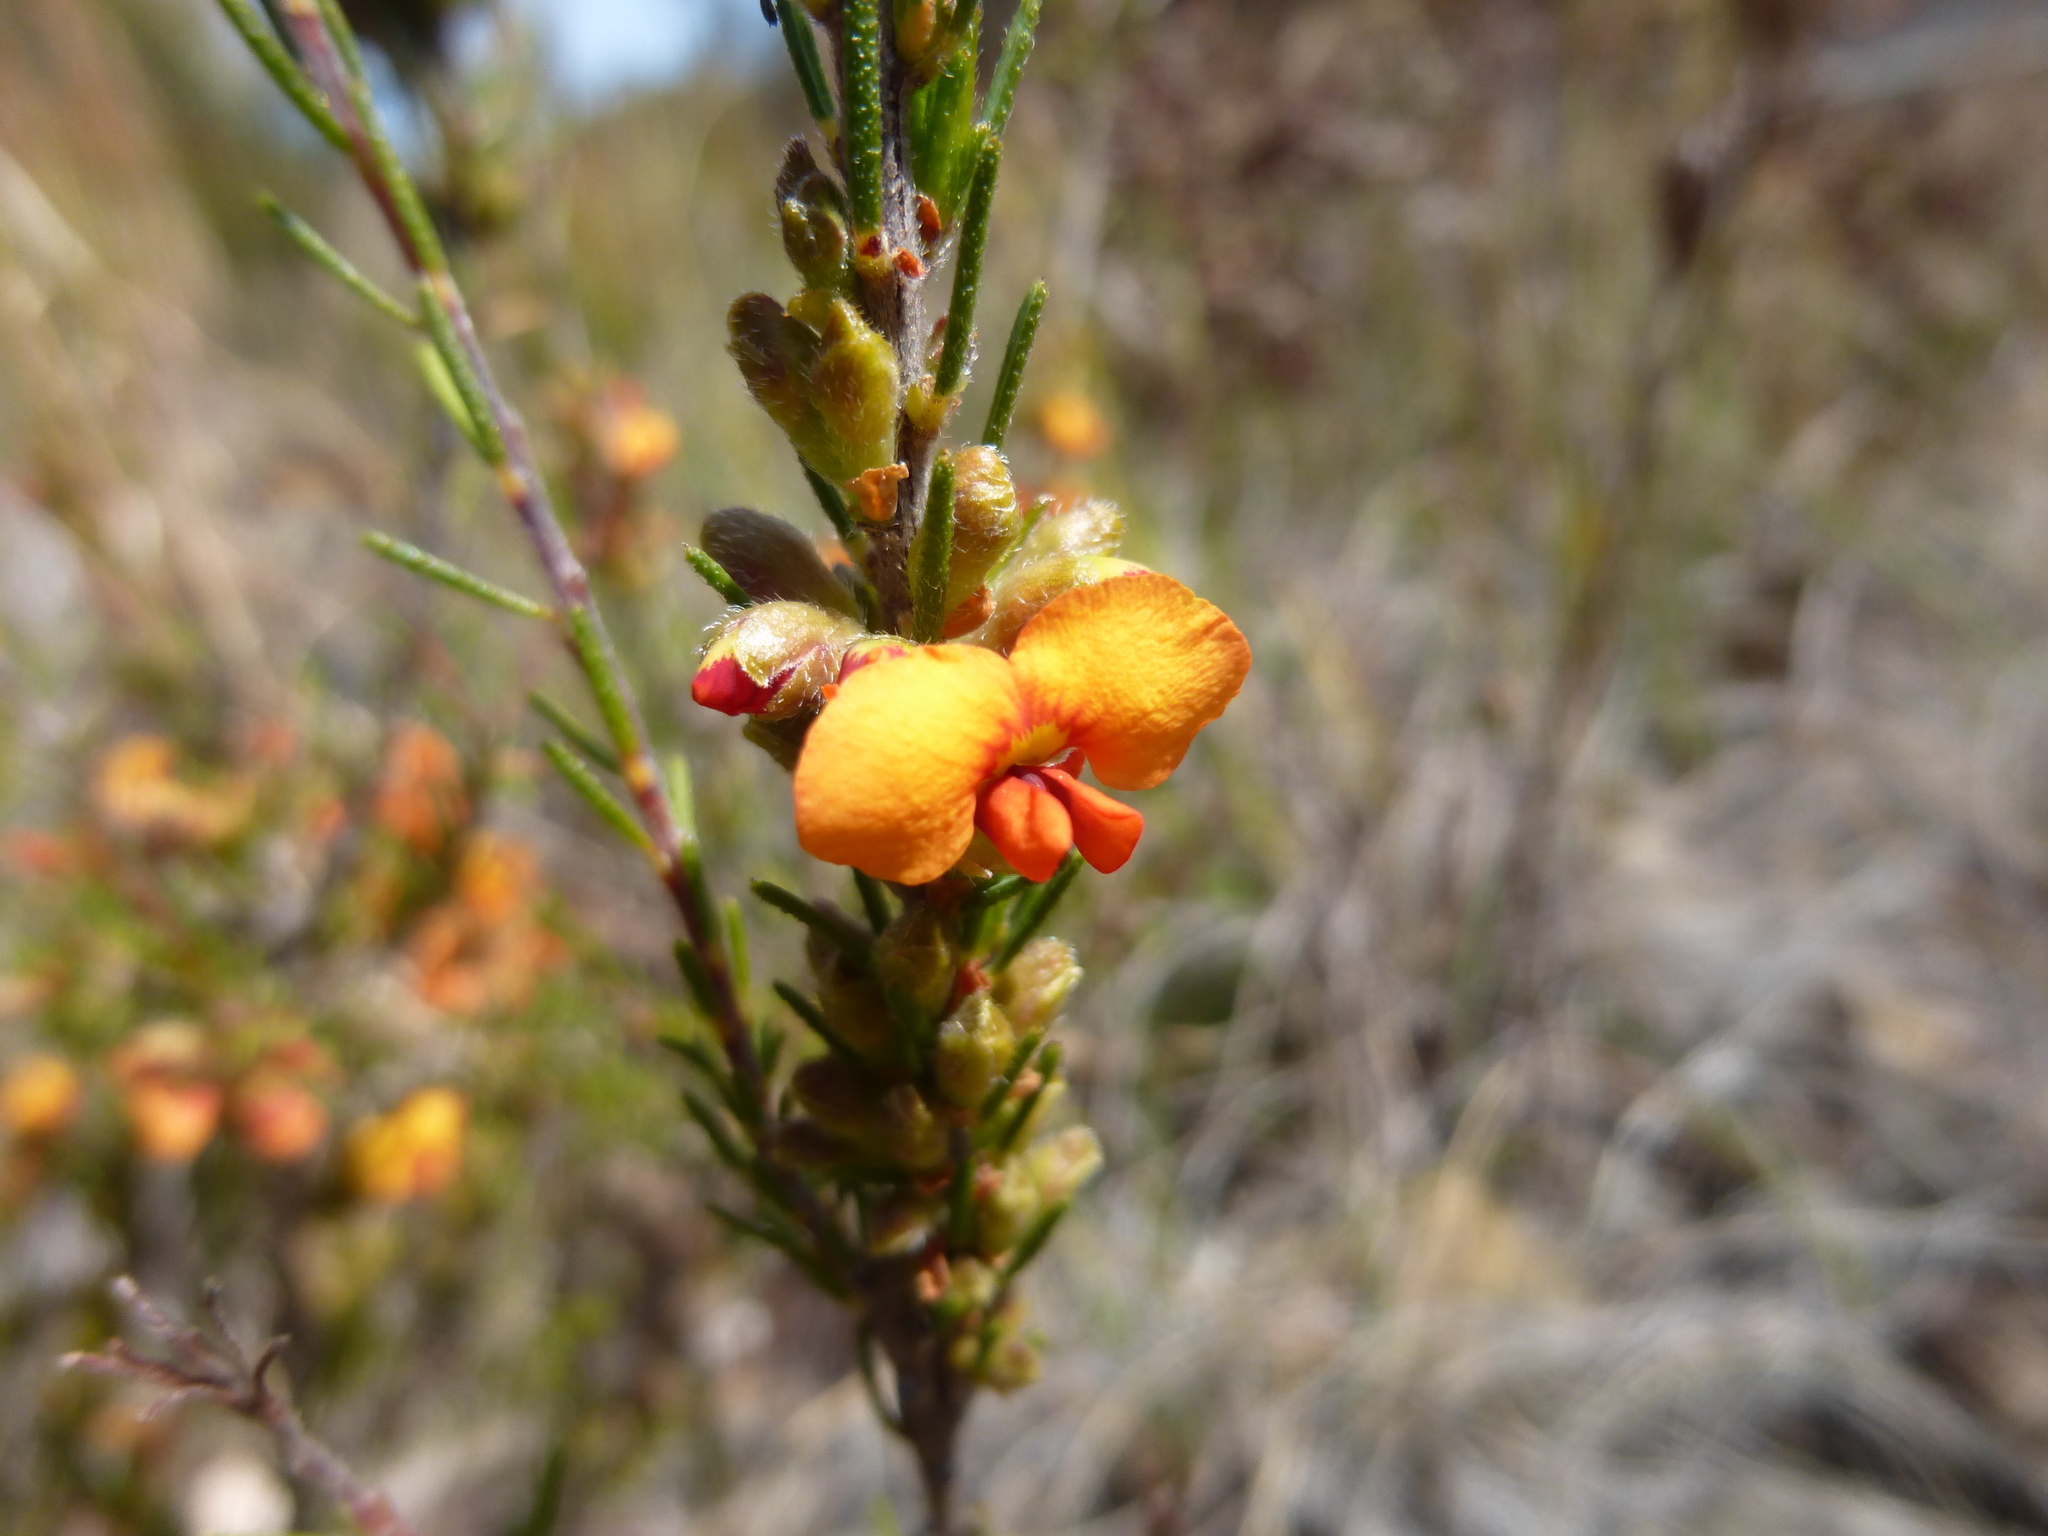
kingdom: Plantae
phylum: Tracheophyta
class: Magnoliopsida
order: Fabales
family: Fabaceae
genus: Dillwynia
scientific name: Dillwynia sericea
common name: Showy parrot-pea
